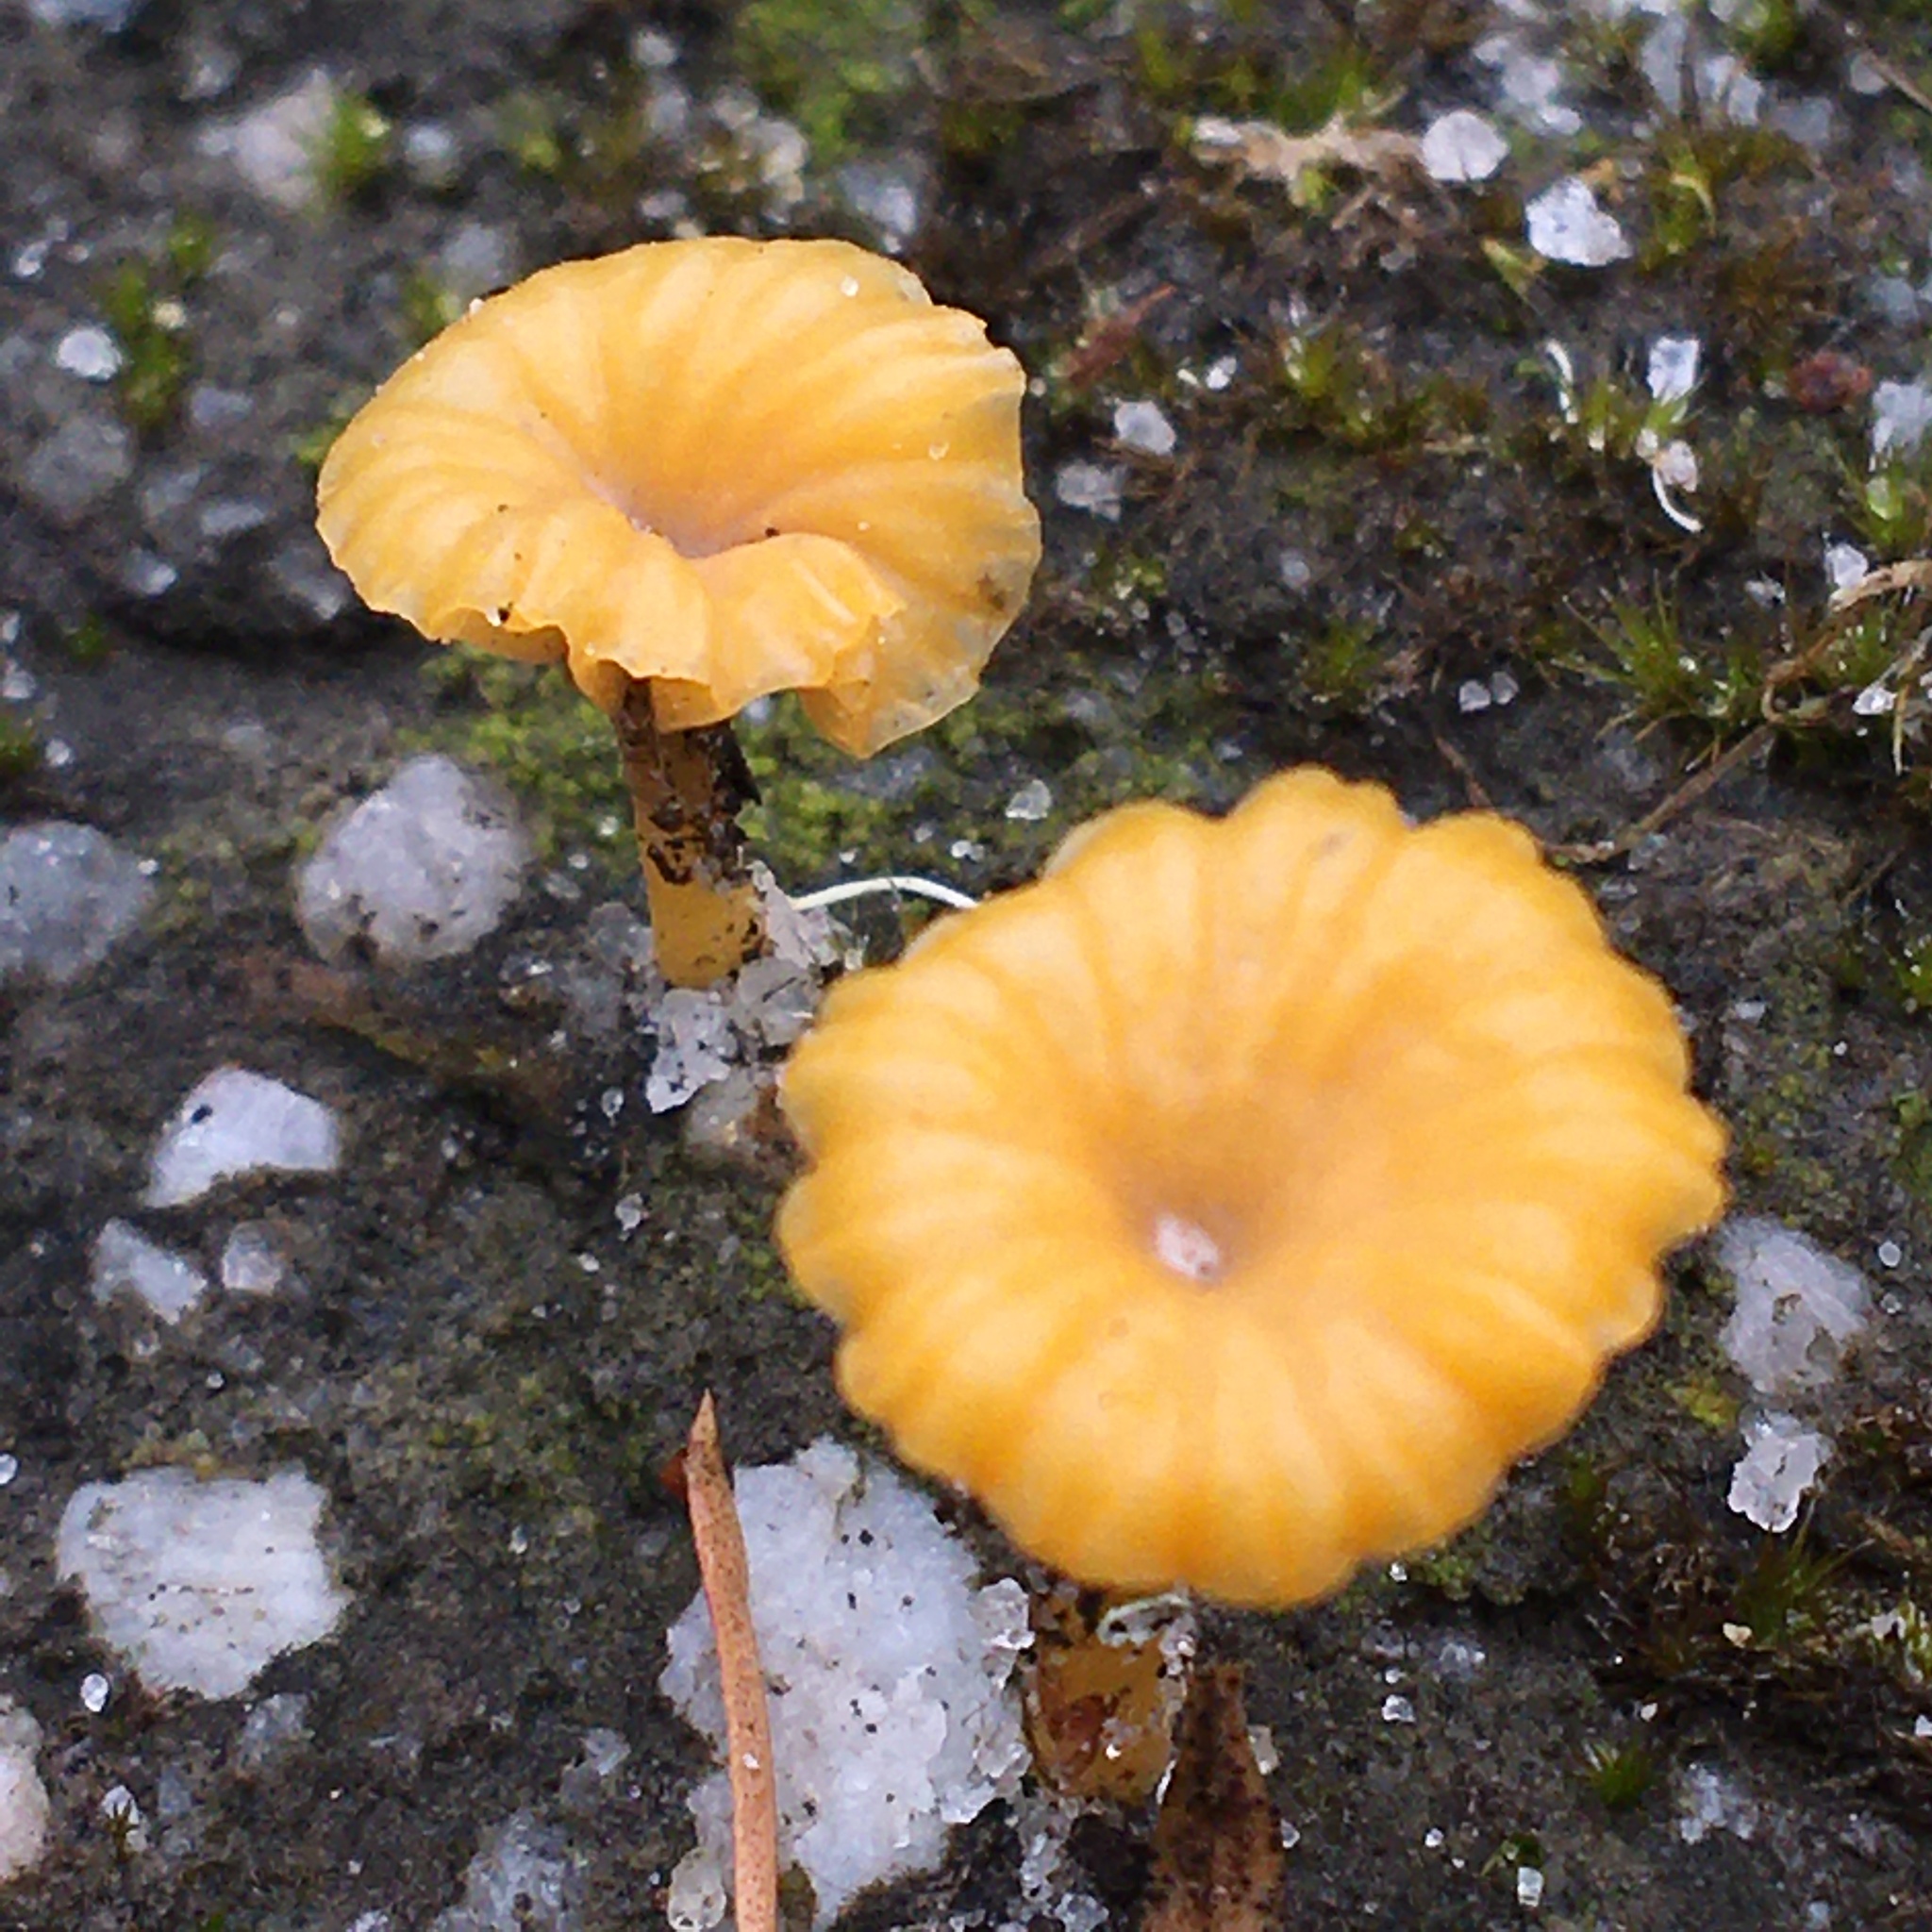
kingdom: Fungi
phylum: Basidiomycota
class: Agaricomycetes
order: Agaricales
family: Hygrophoraceae
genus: Lichenomphalia
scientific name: Lichenomphalia chromacea
